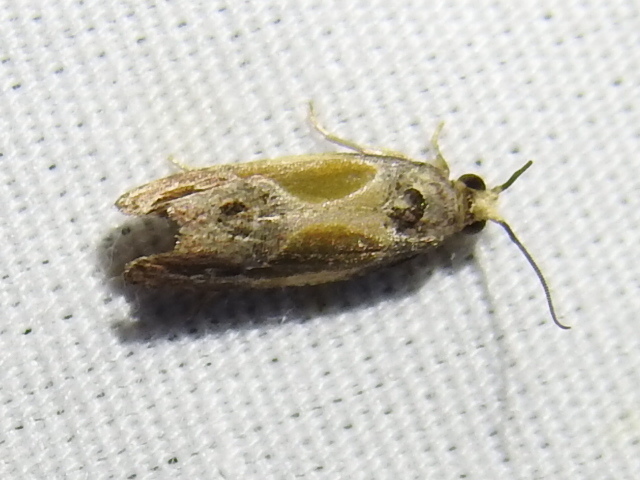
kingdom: Animalia
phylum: Arthropoda
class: Insecta
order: Lepidoptera
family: Tortricidae
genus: Eumarozia
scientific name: Eumarozia malachitana
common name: Sculptured moth
